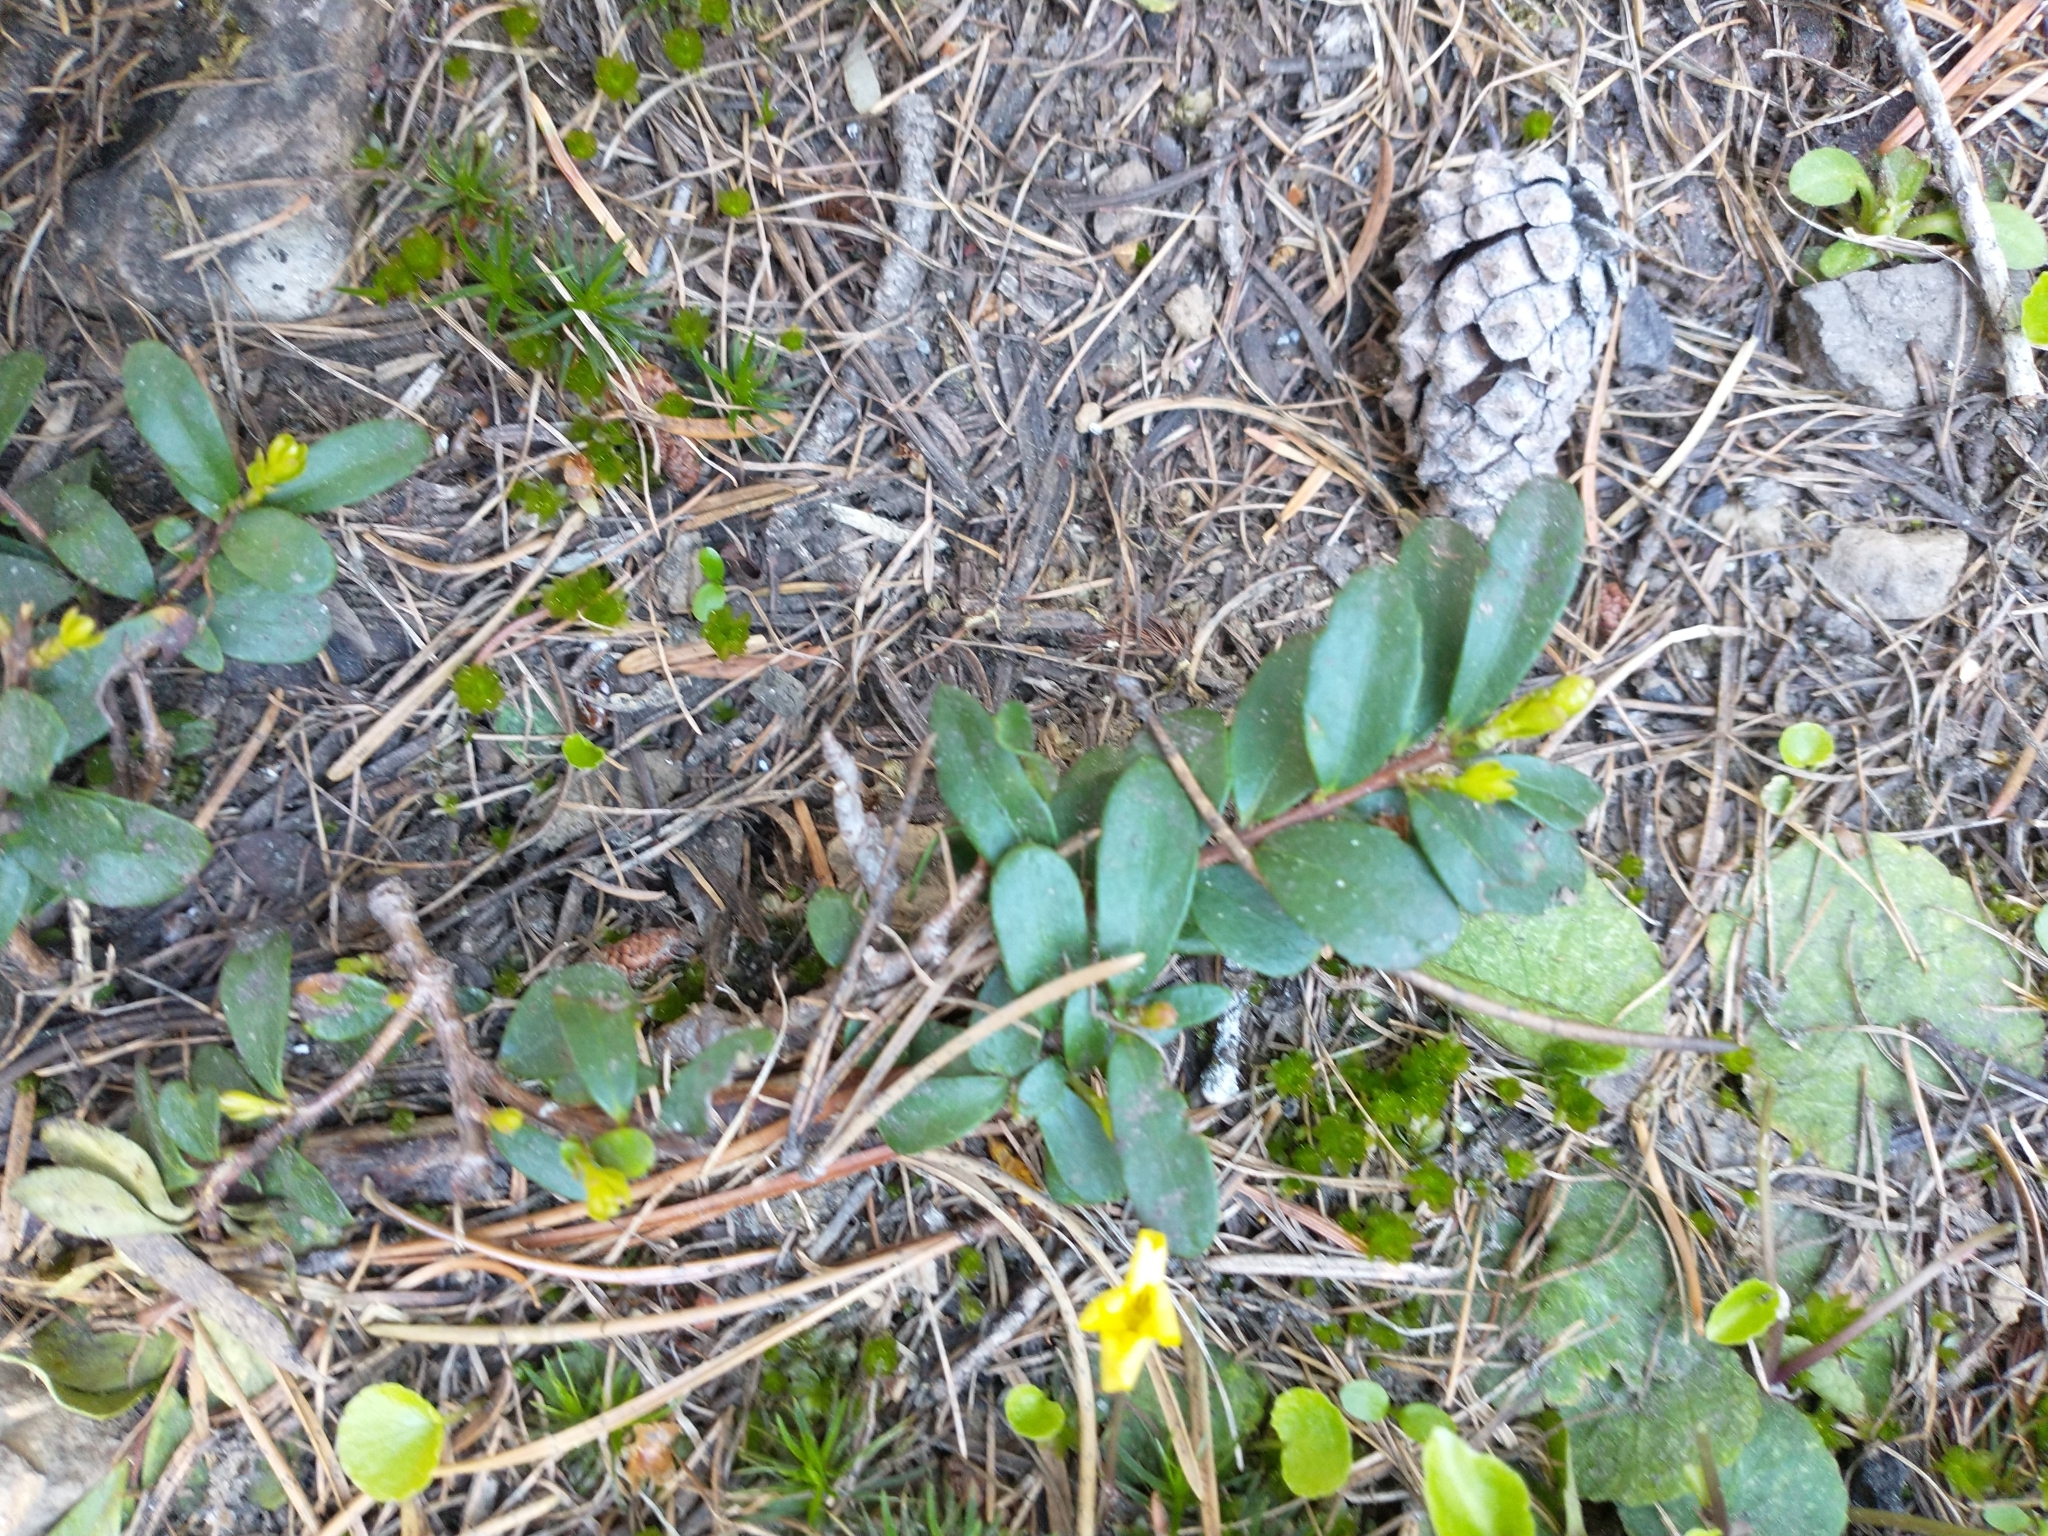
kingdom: Plantae
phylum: Tracheophyta
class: Magnoliopsida
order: Celastrales
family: Celastraceae
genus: Paxistima
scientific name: Paxistima myrsinites
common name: Mountain-lover
